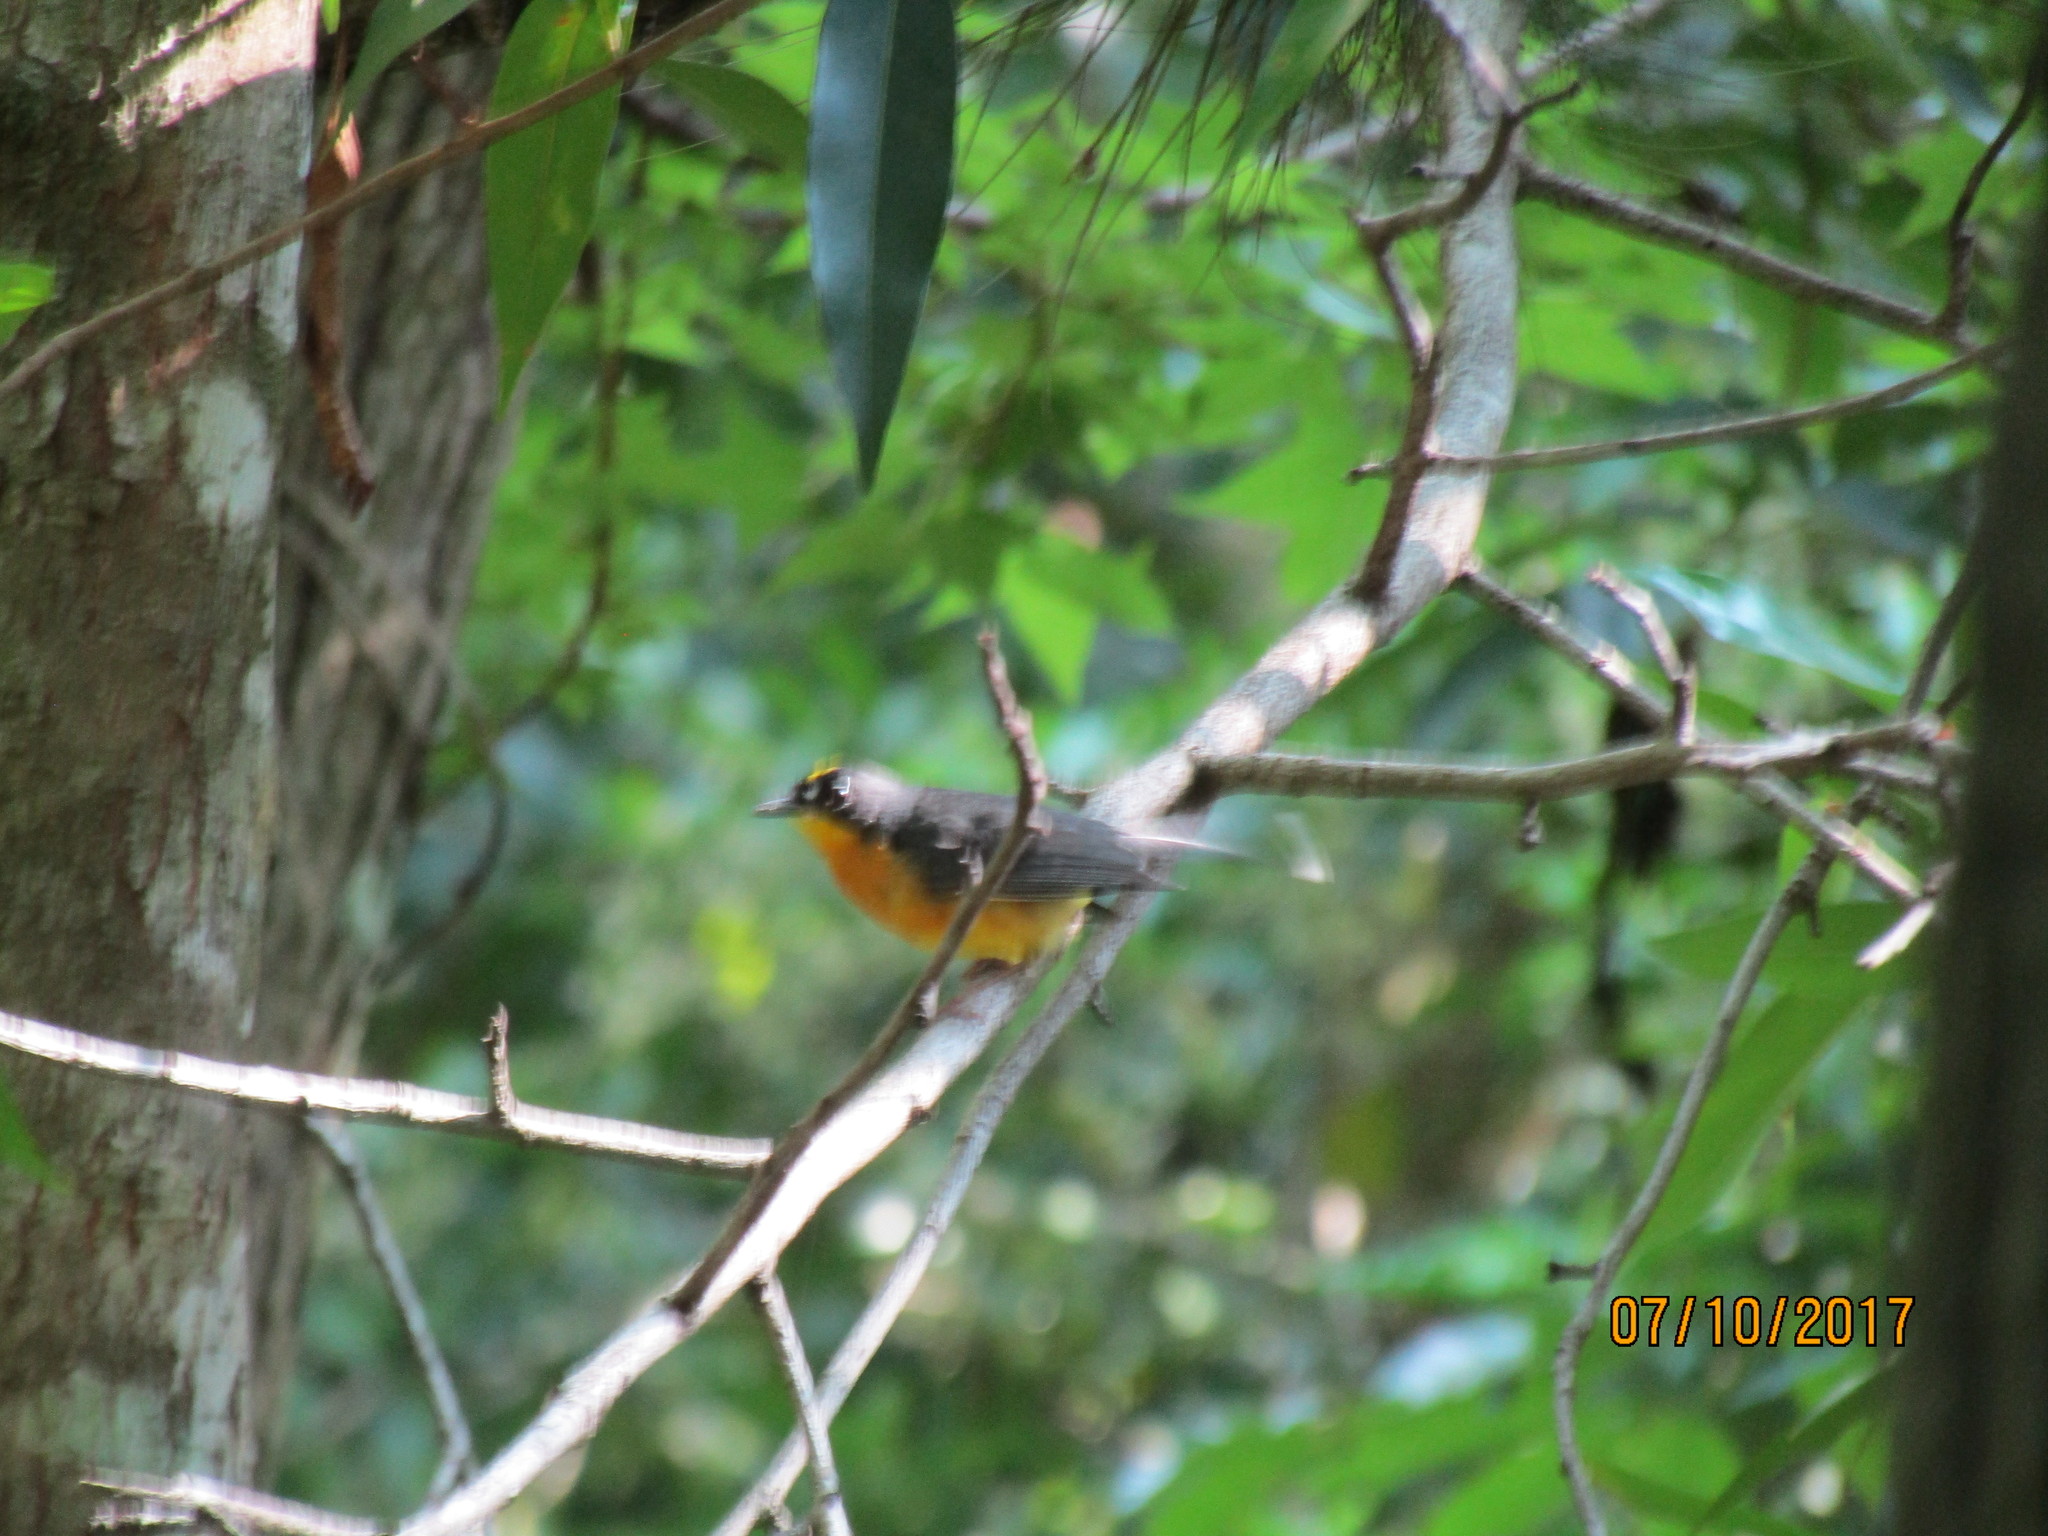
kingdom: Animalia
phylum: Chordata
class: Aves
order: Passeriformes
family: Parulidae
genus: Basileuterus
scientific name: Basileuterus lachrymosus
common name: Fan-tailed warbler
